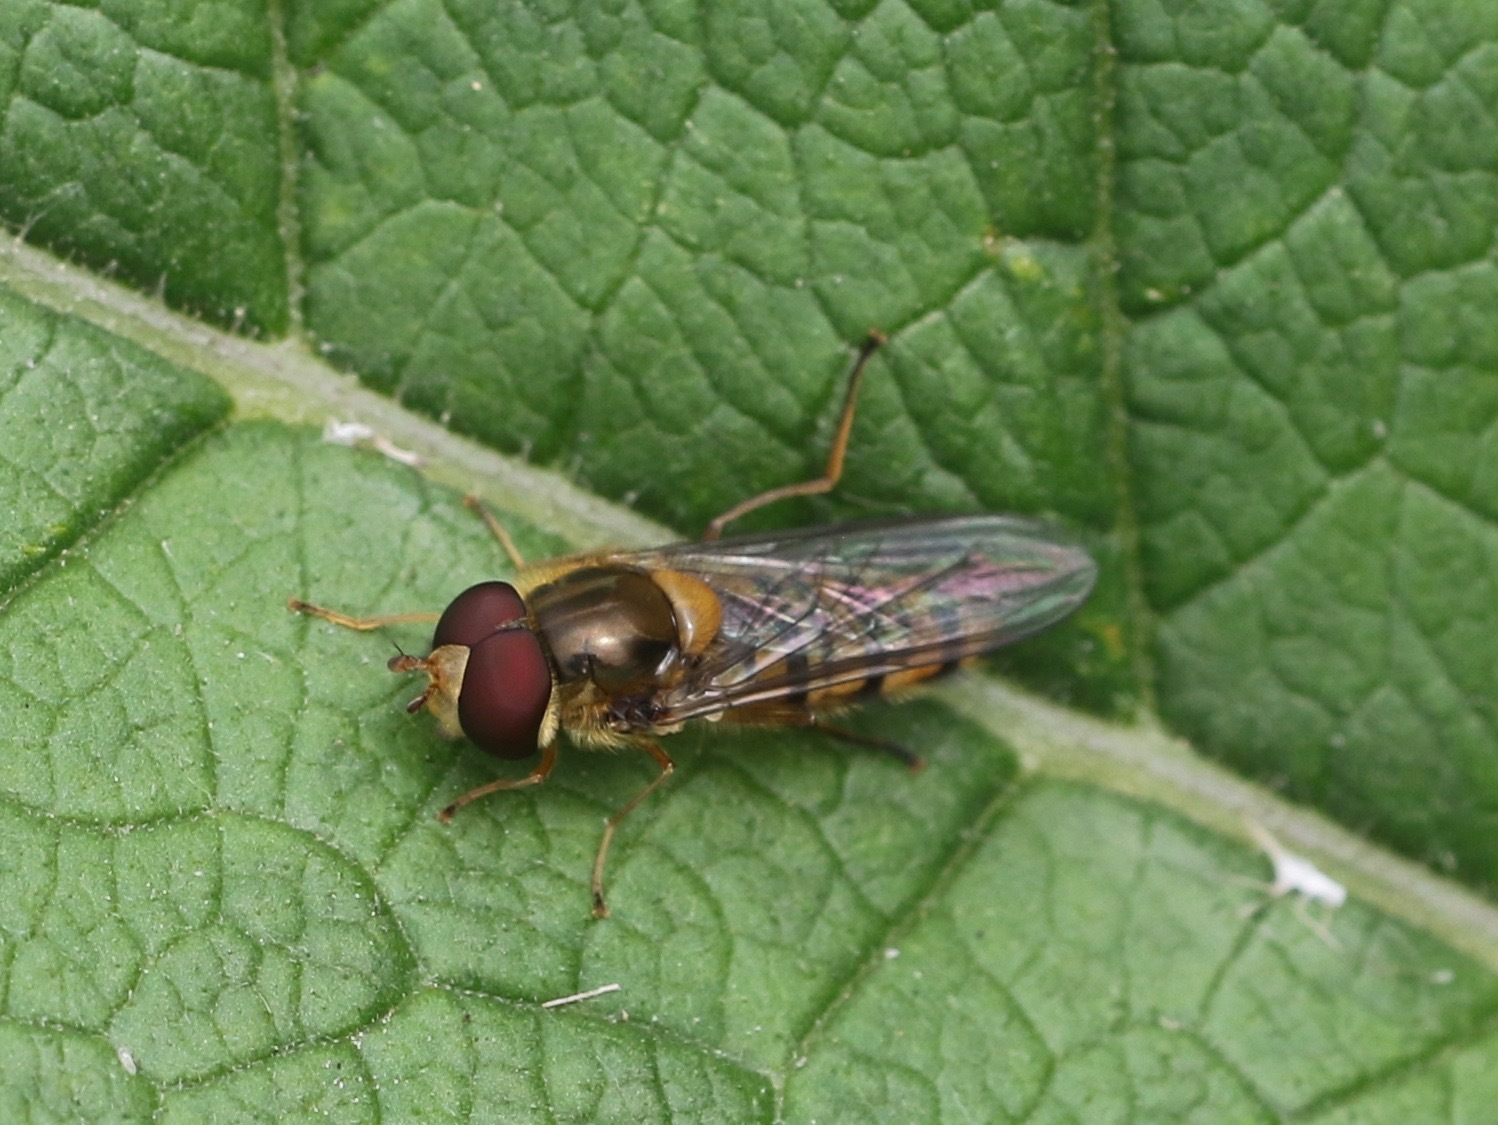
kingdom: Animalia
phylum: Arthropoda
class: Insecta
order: Diptera
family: Syrphidae
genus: Episyrphus
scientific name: Episyrphus balteatus
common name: Marmalade hoverfly
